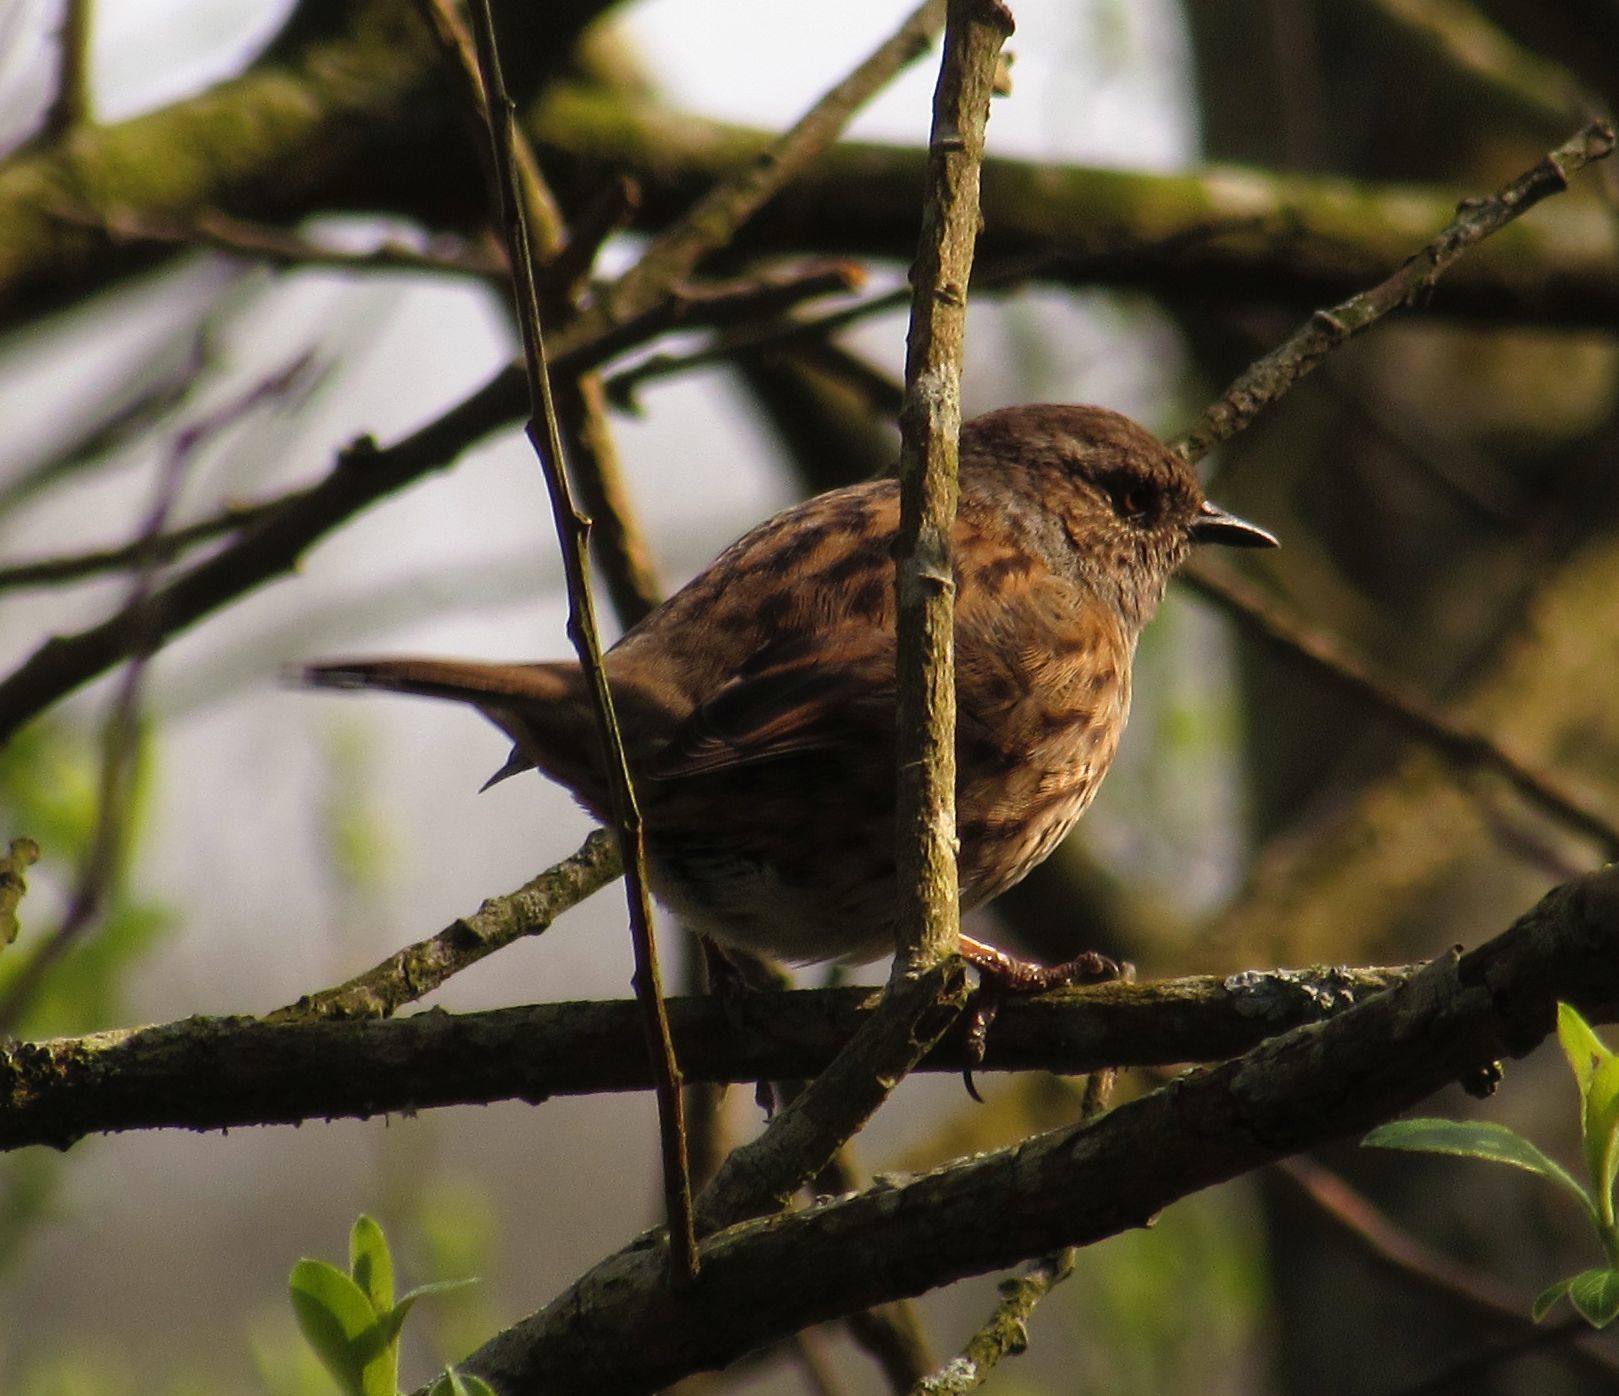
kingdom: Animalia
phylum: Chordata
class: Aves
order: Passeriformes
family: Prunellidae
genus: Prunella
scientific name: Prunella modularis
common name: Dunnock
